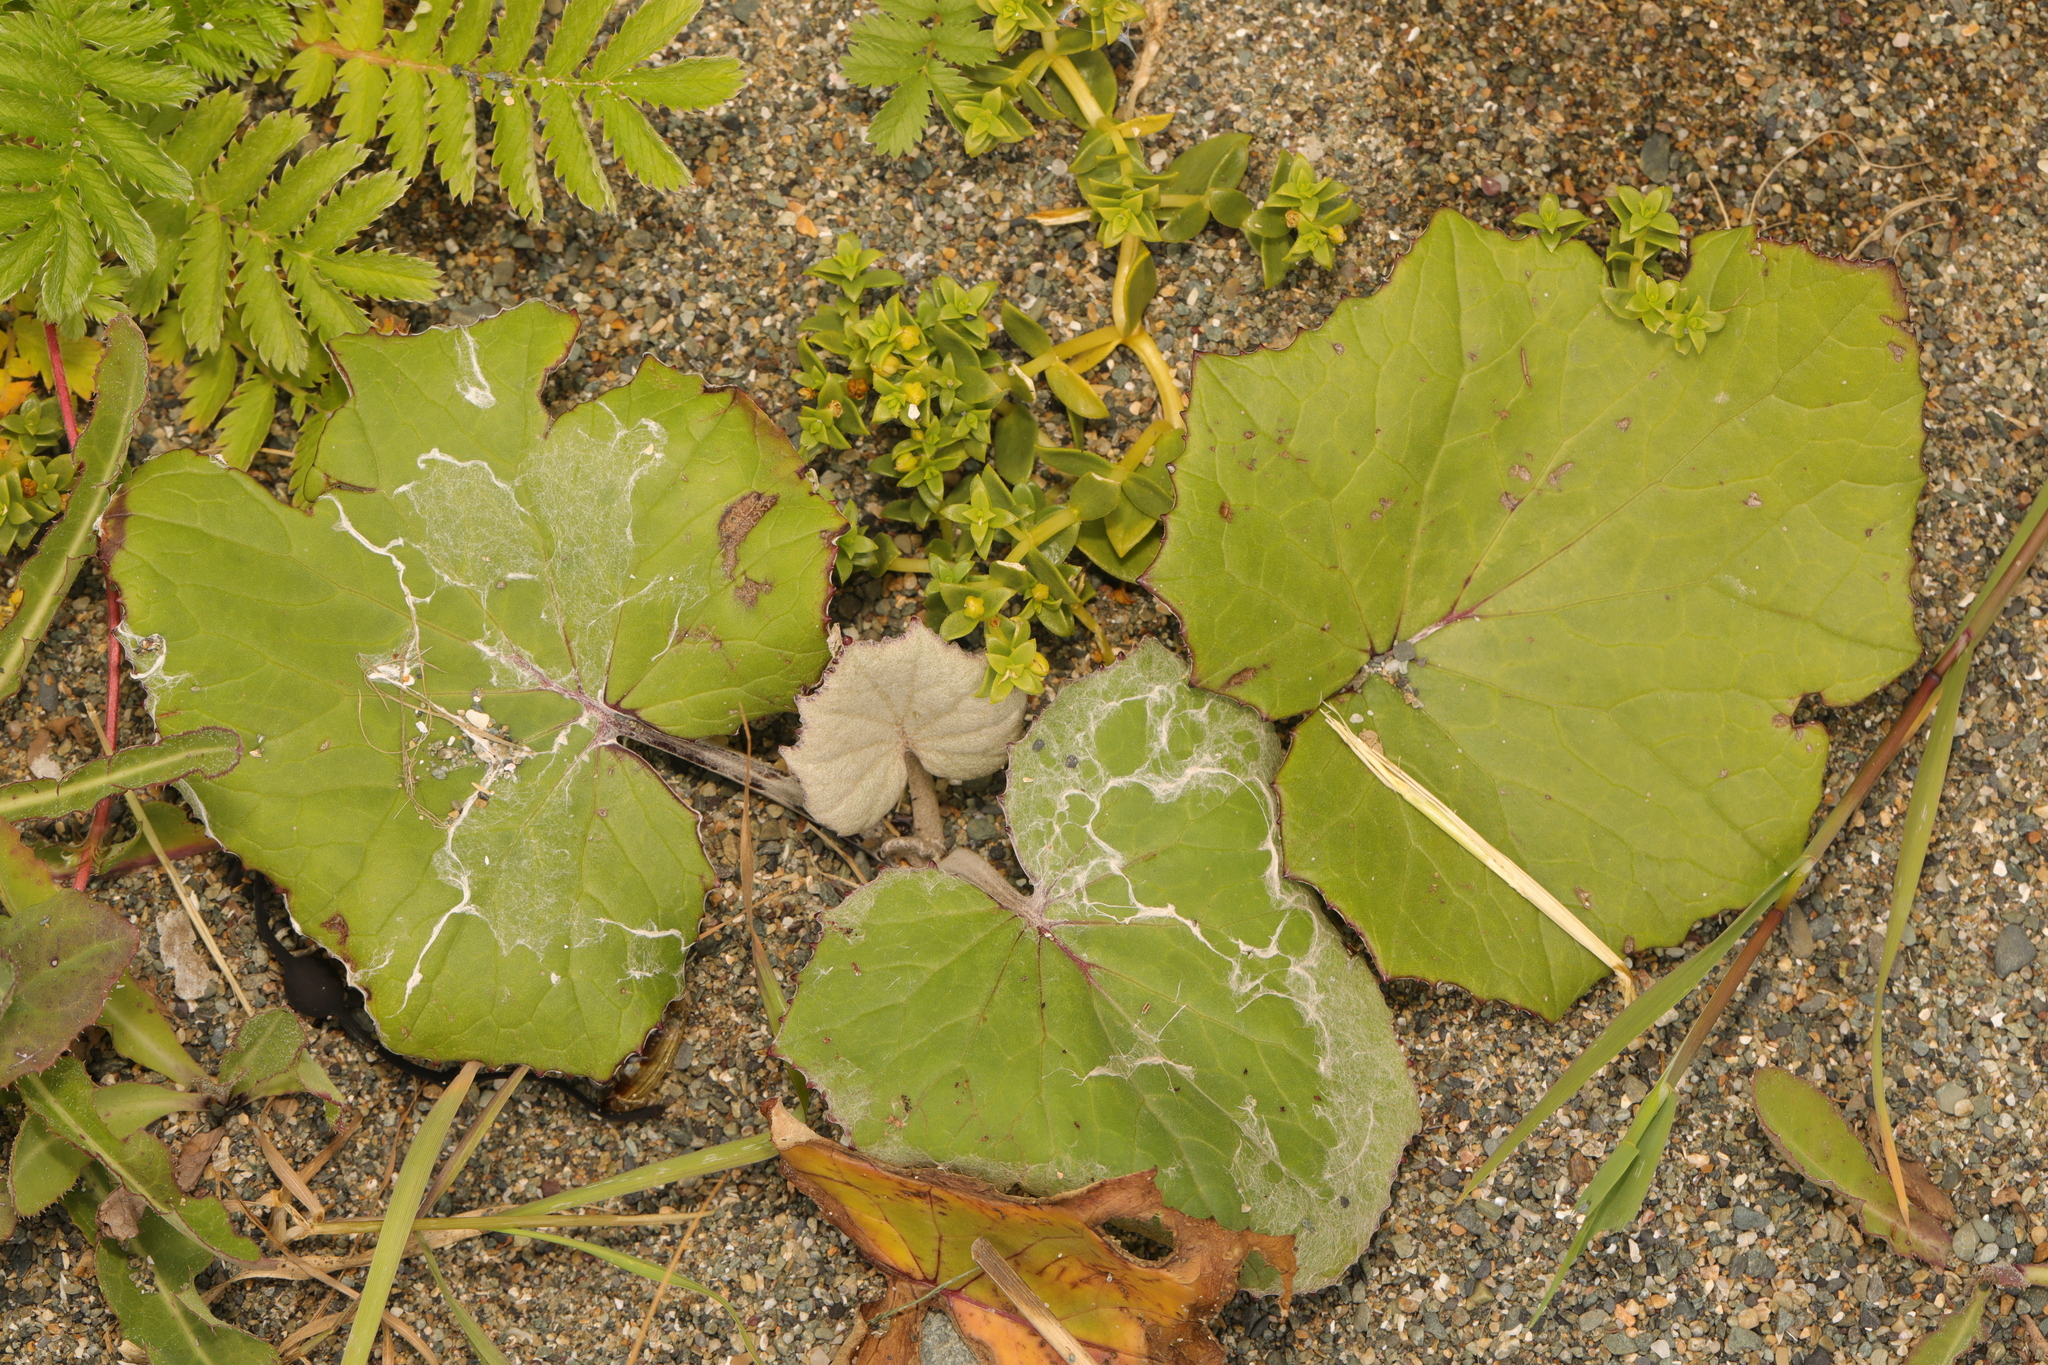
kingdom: Plantae
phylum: Tracheophyta
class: Magnoliopsida
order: Asterales
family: Asteraceae
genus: Tussilago
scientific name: Tussilago farfara
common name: Coltsfoot
